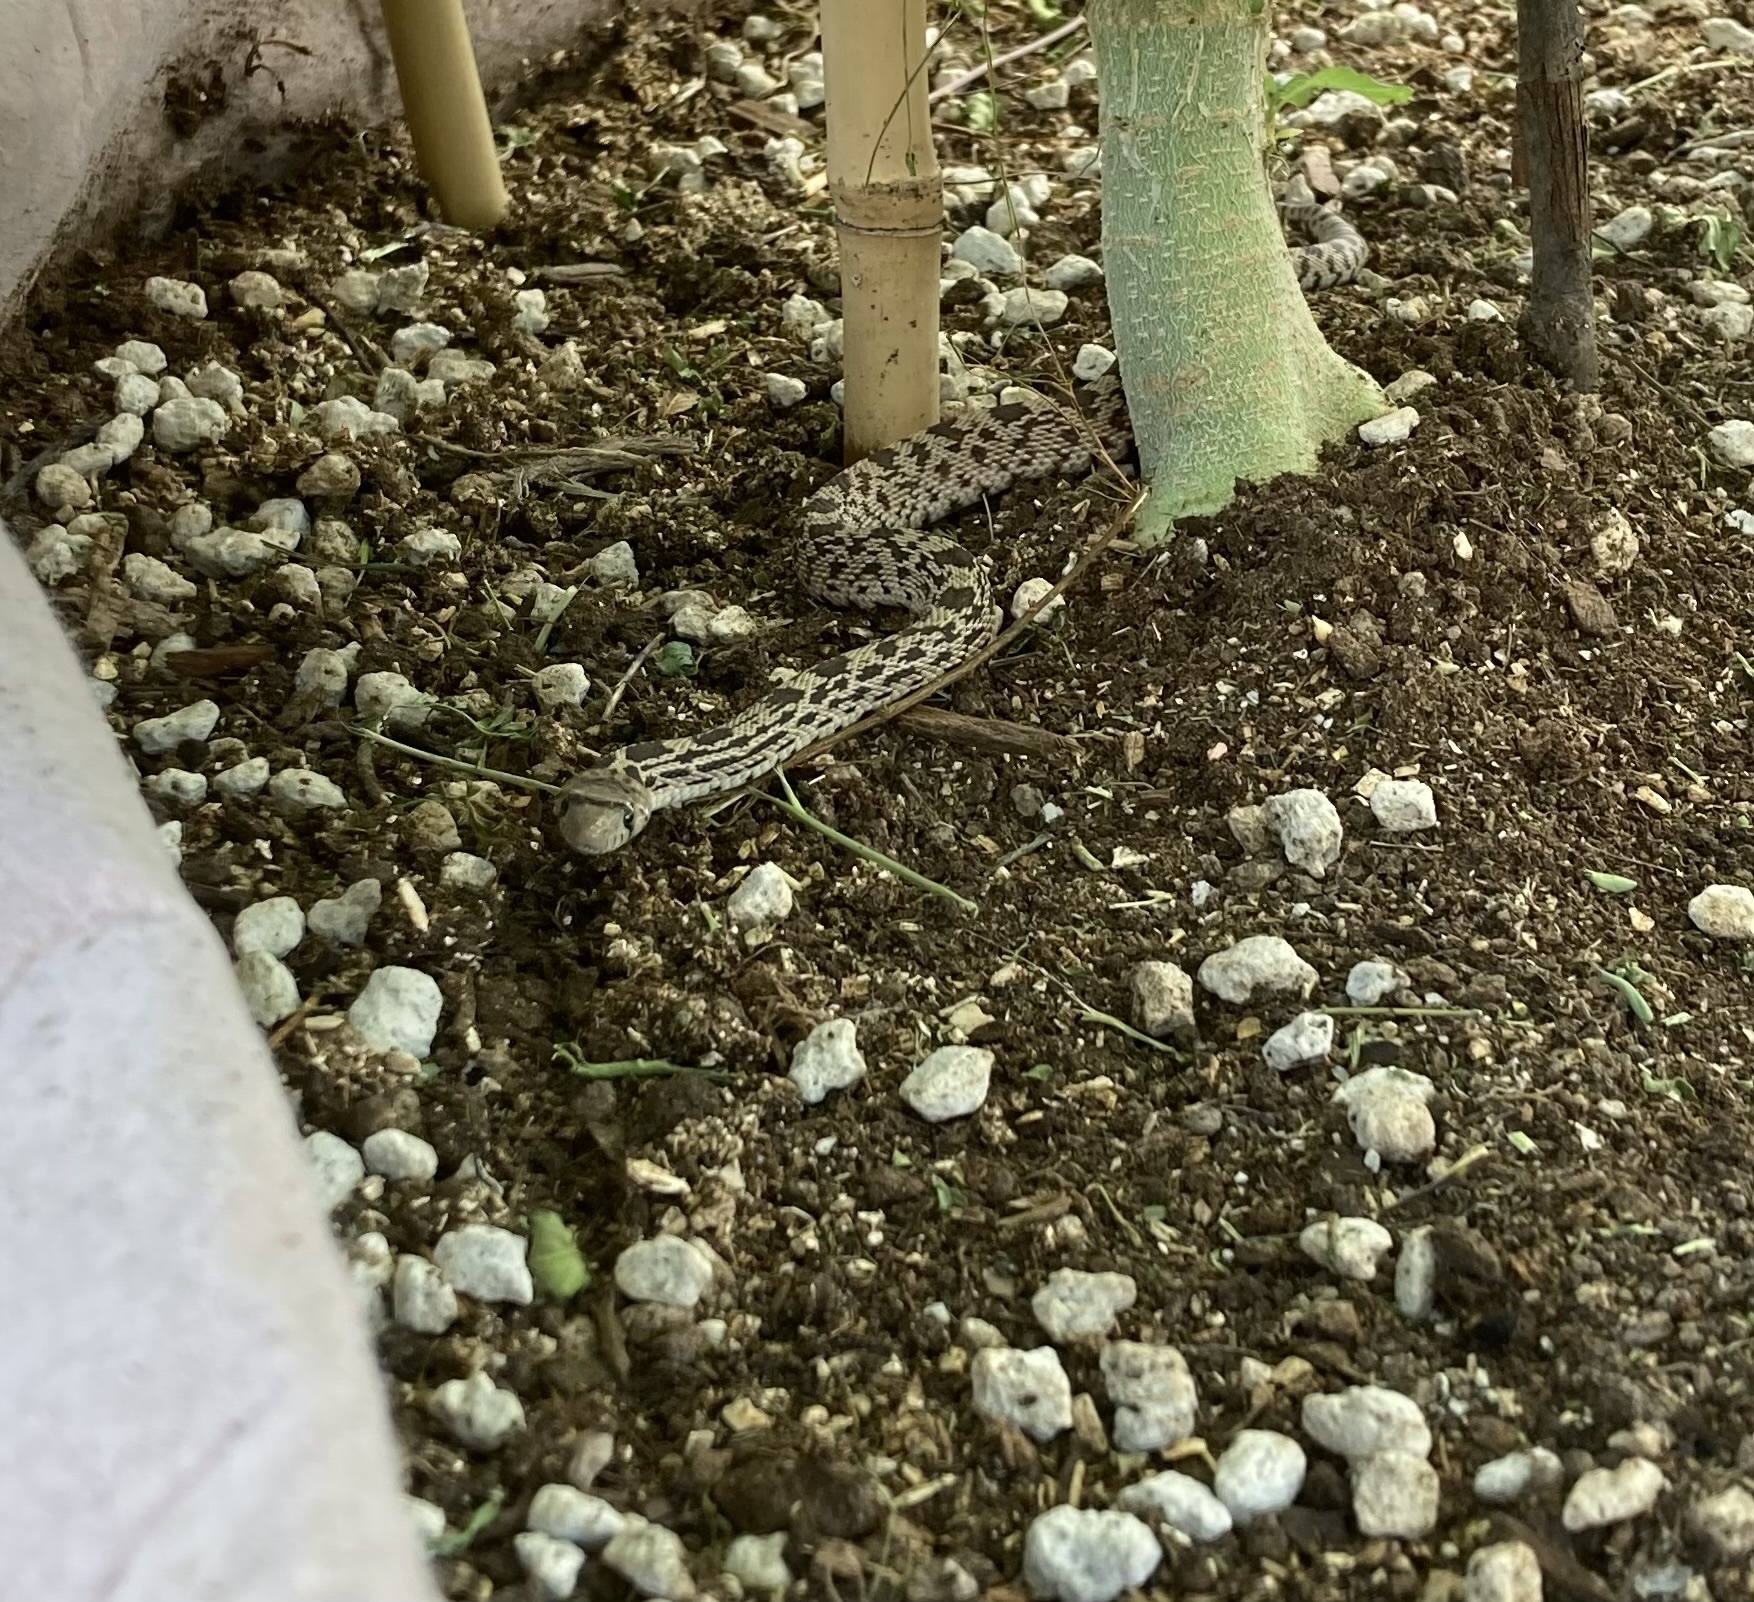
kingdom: Animalia
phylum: Chordata
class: Squamata
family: Colubridae
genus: Pituophis
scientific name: Pituophis catenifer
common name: Gopher snake
